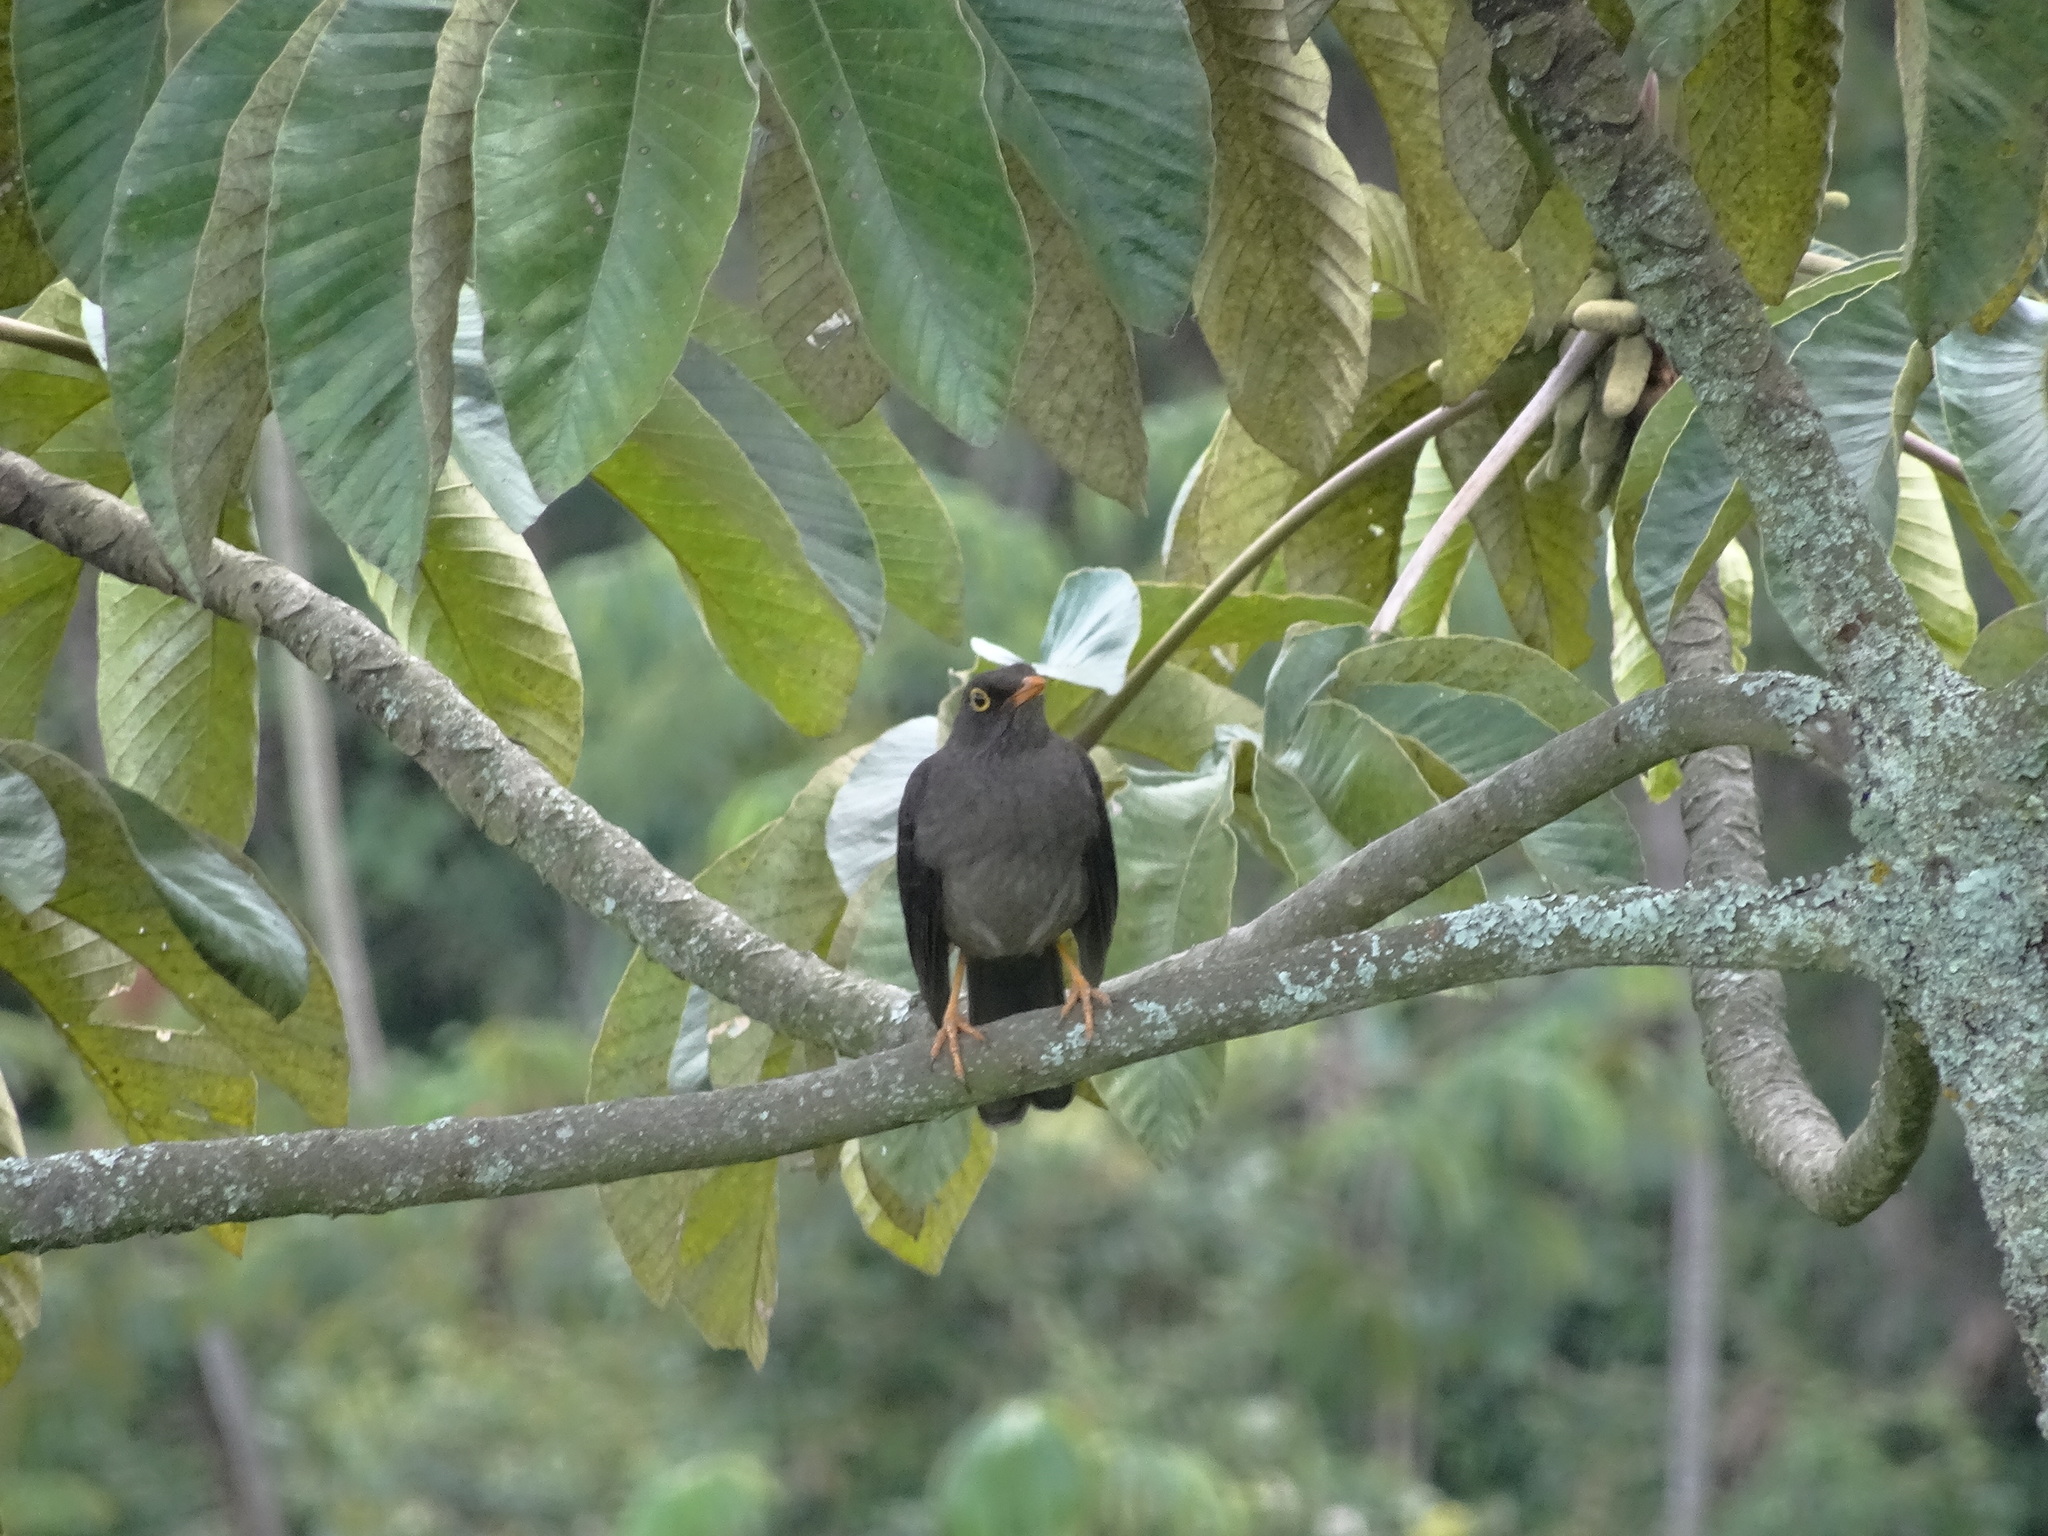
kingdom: Animalia
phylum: Chordata
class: Aves
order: Passeriformes
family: Turdidae
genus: Turdus
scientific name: Turdus fuscater
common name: Great thrush
